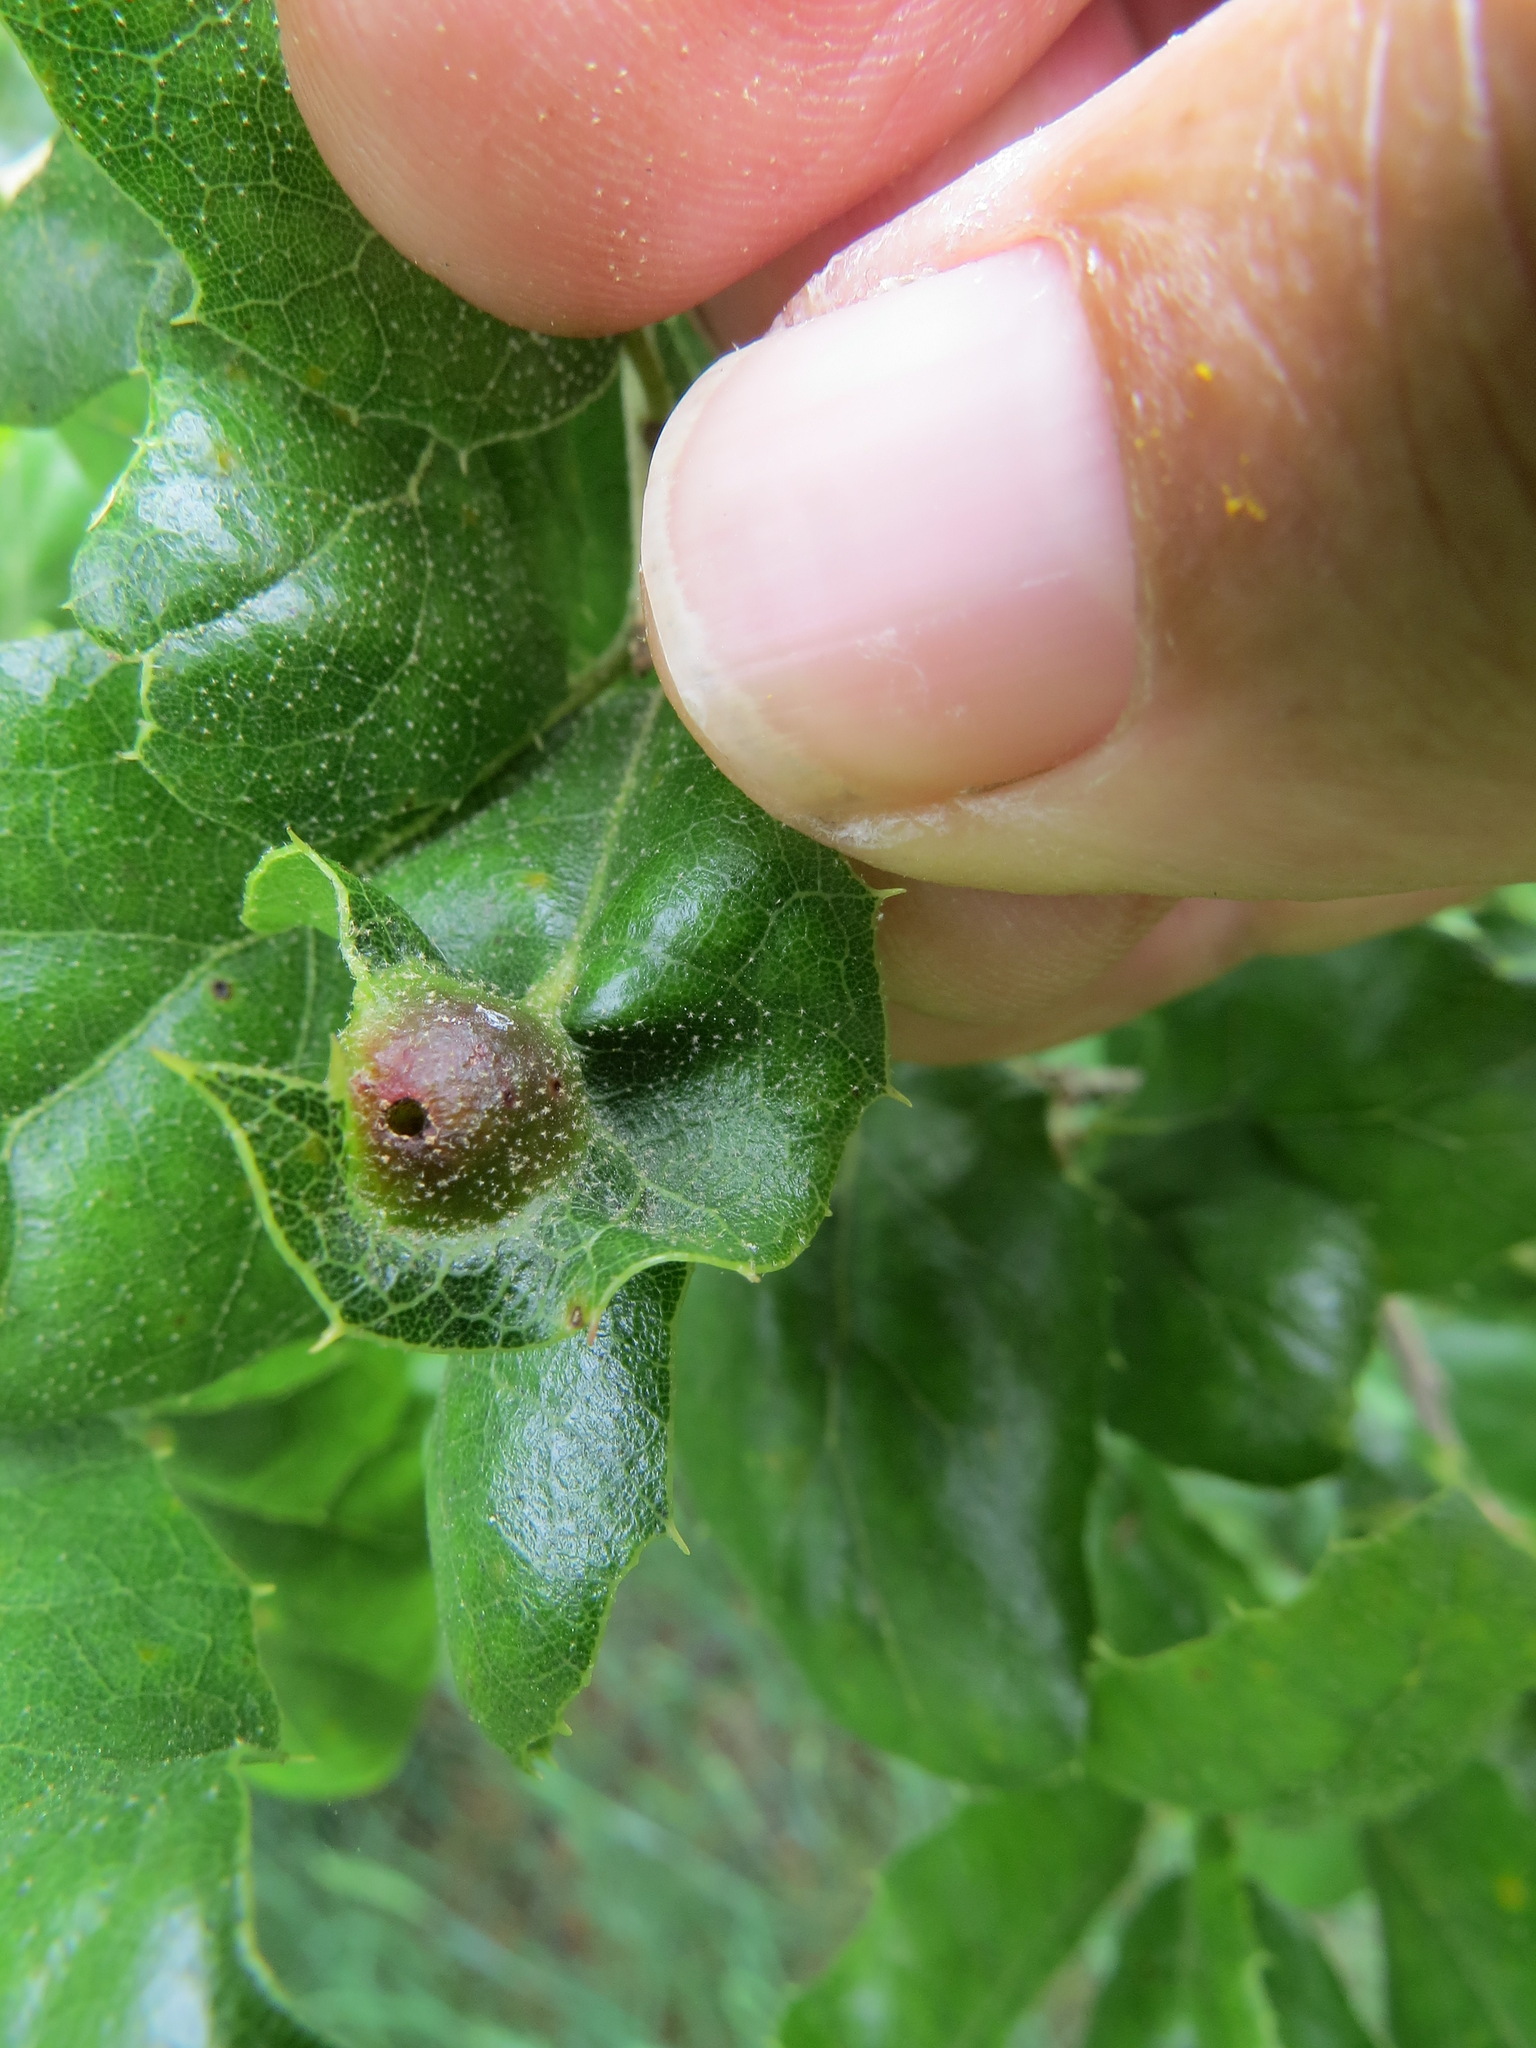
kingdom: Animalia
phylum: Arthropoda
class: Insecta
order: Hymenoptera
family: Cynipidae
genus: Callirhytis
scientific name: Callirhytis
